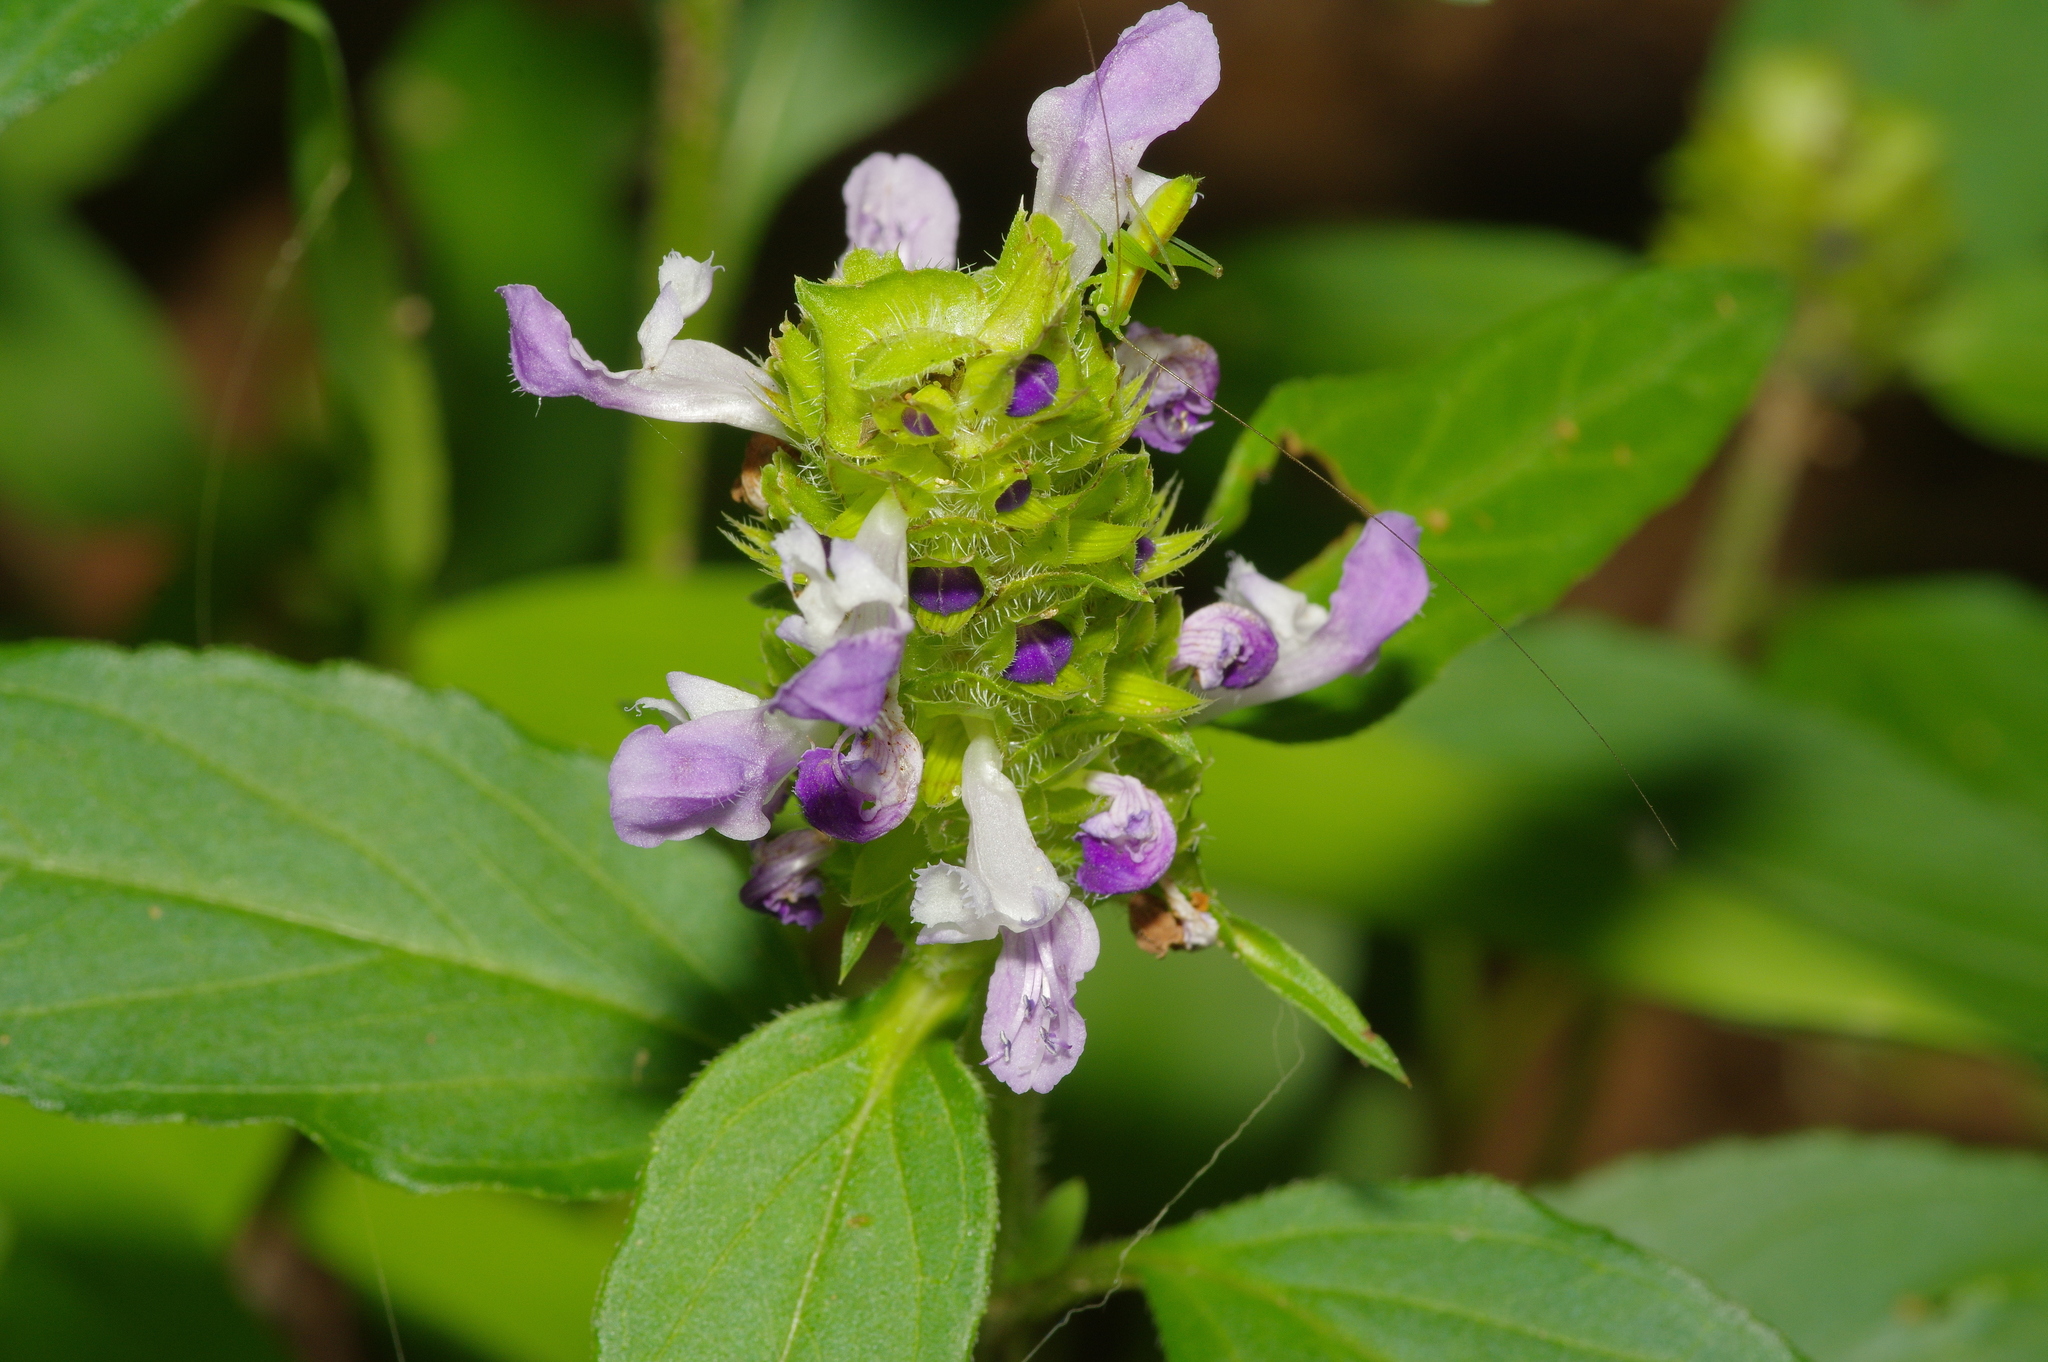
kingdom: Plantae
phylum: Tracheophyta
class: Magnoliopsida
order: Lamiales
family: Lamiaceae
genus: Prunella
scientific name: Prunella vulgaris
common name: Heal-all
